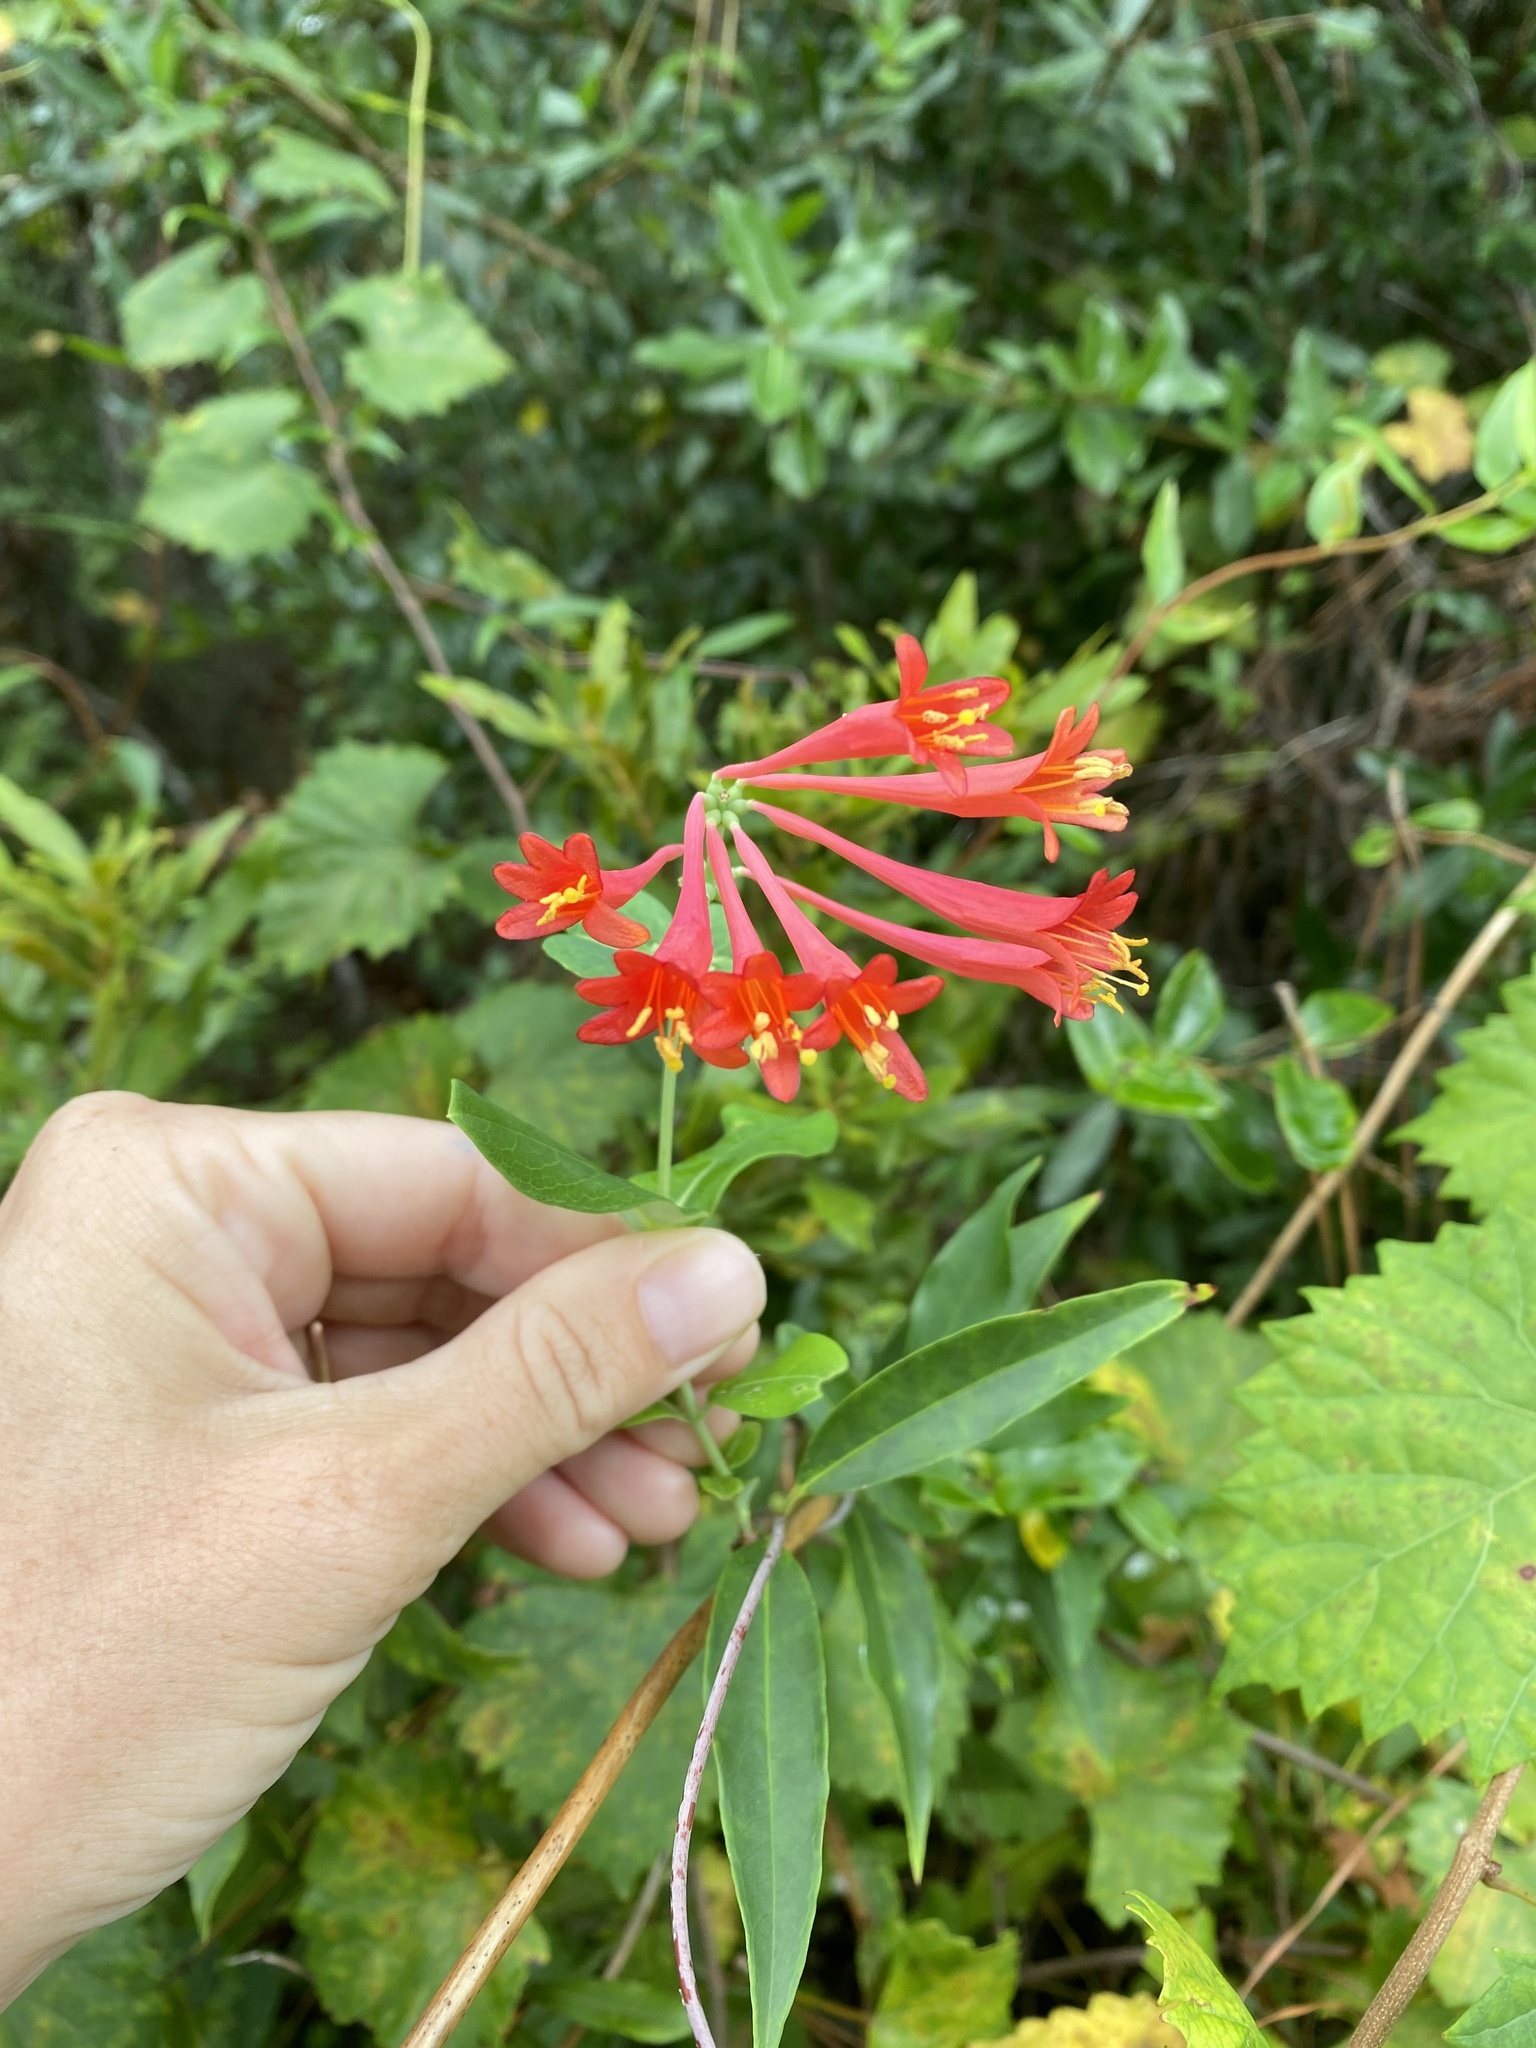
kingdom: Plantae
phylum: Tracheophyta
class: Magnoliopsida
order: Dipsacales
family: Caprifoliaceae
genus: Lonicera
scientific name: Lonicera sempervirens
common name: Coral honeysuckle
